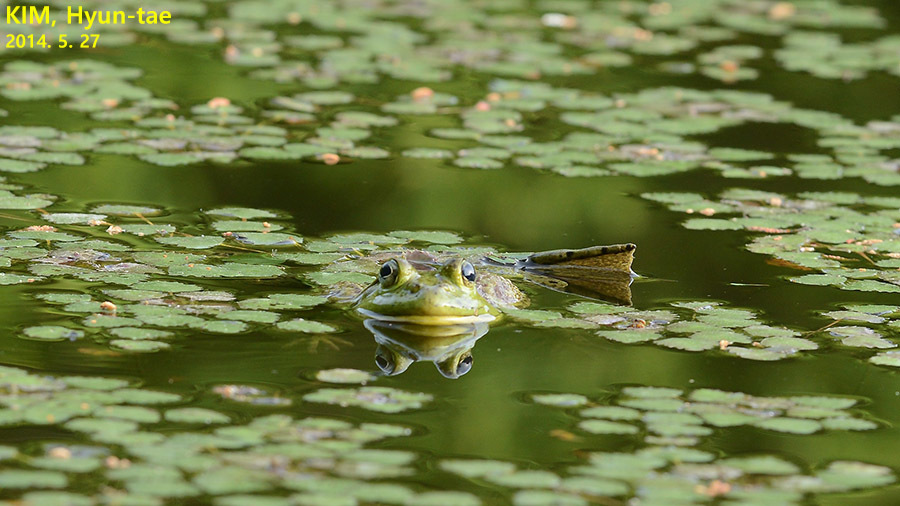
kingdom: Animalia
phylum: Chordata
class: Amphibia
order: Anura
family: Ranidae
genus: Lithobates
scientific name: Lithobates catesbeianus
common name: American bullfrog
